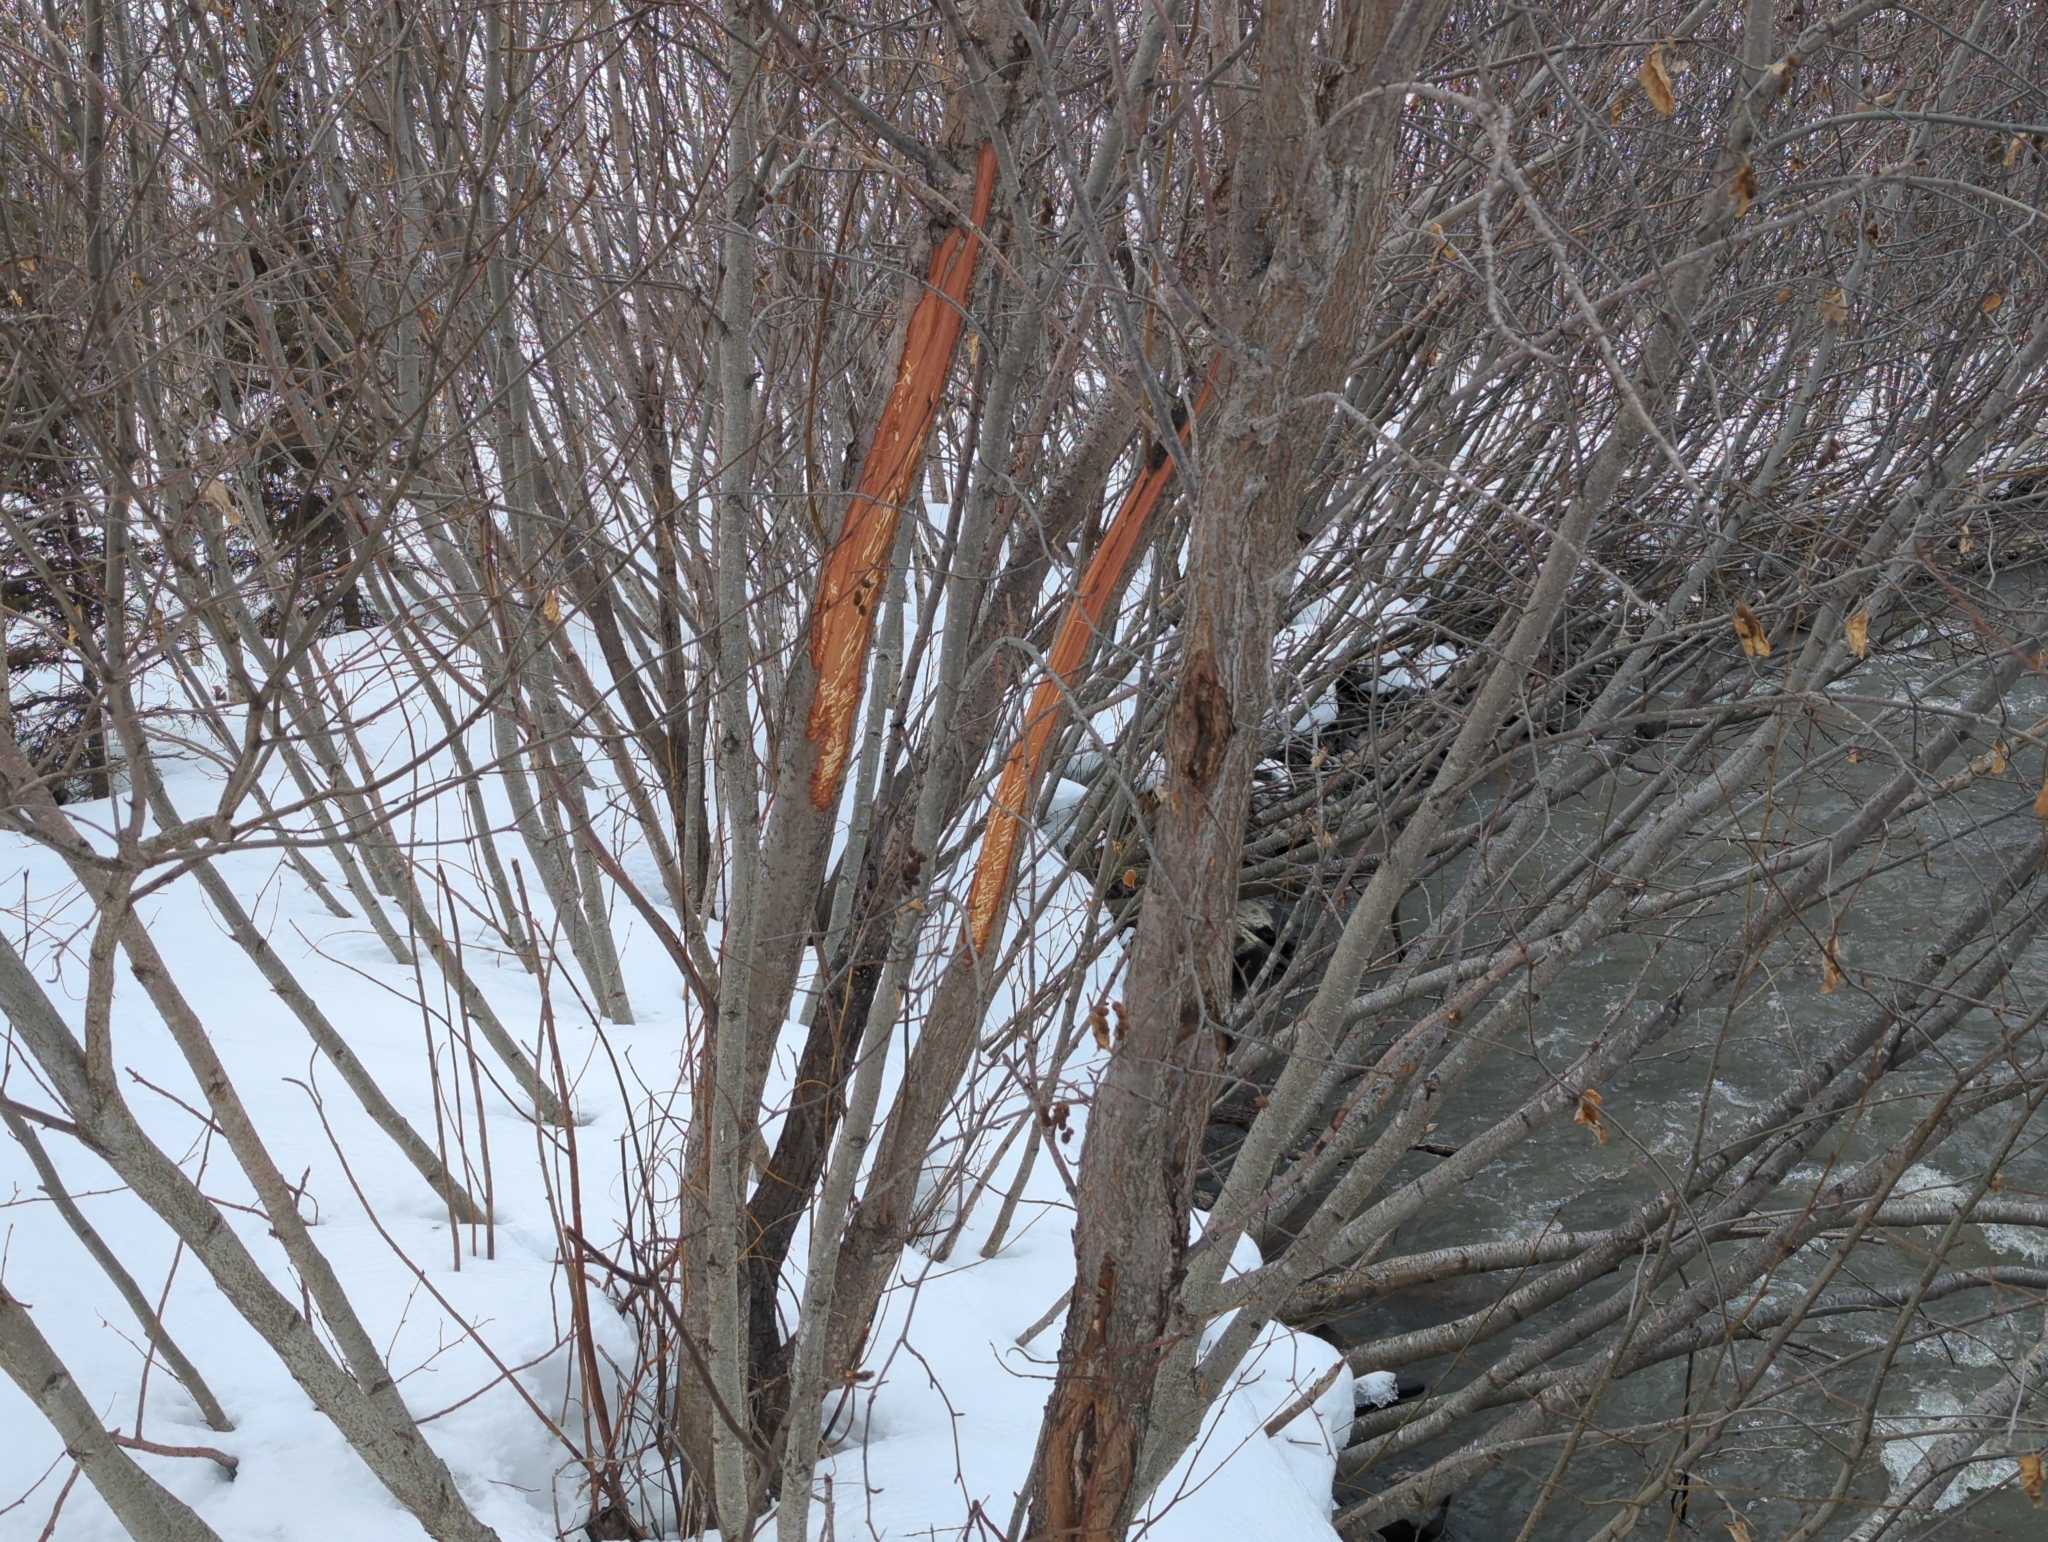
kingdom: Animalia
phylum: Chordata
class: Mammalia
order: Artiodactyla
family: Cervidae
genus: Alces
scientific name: Alces alces
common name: Moose
